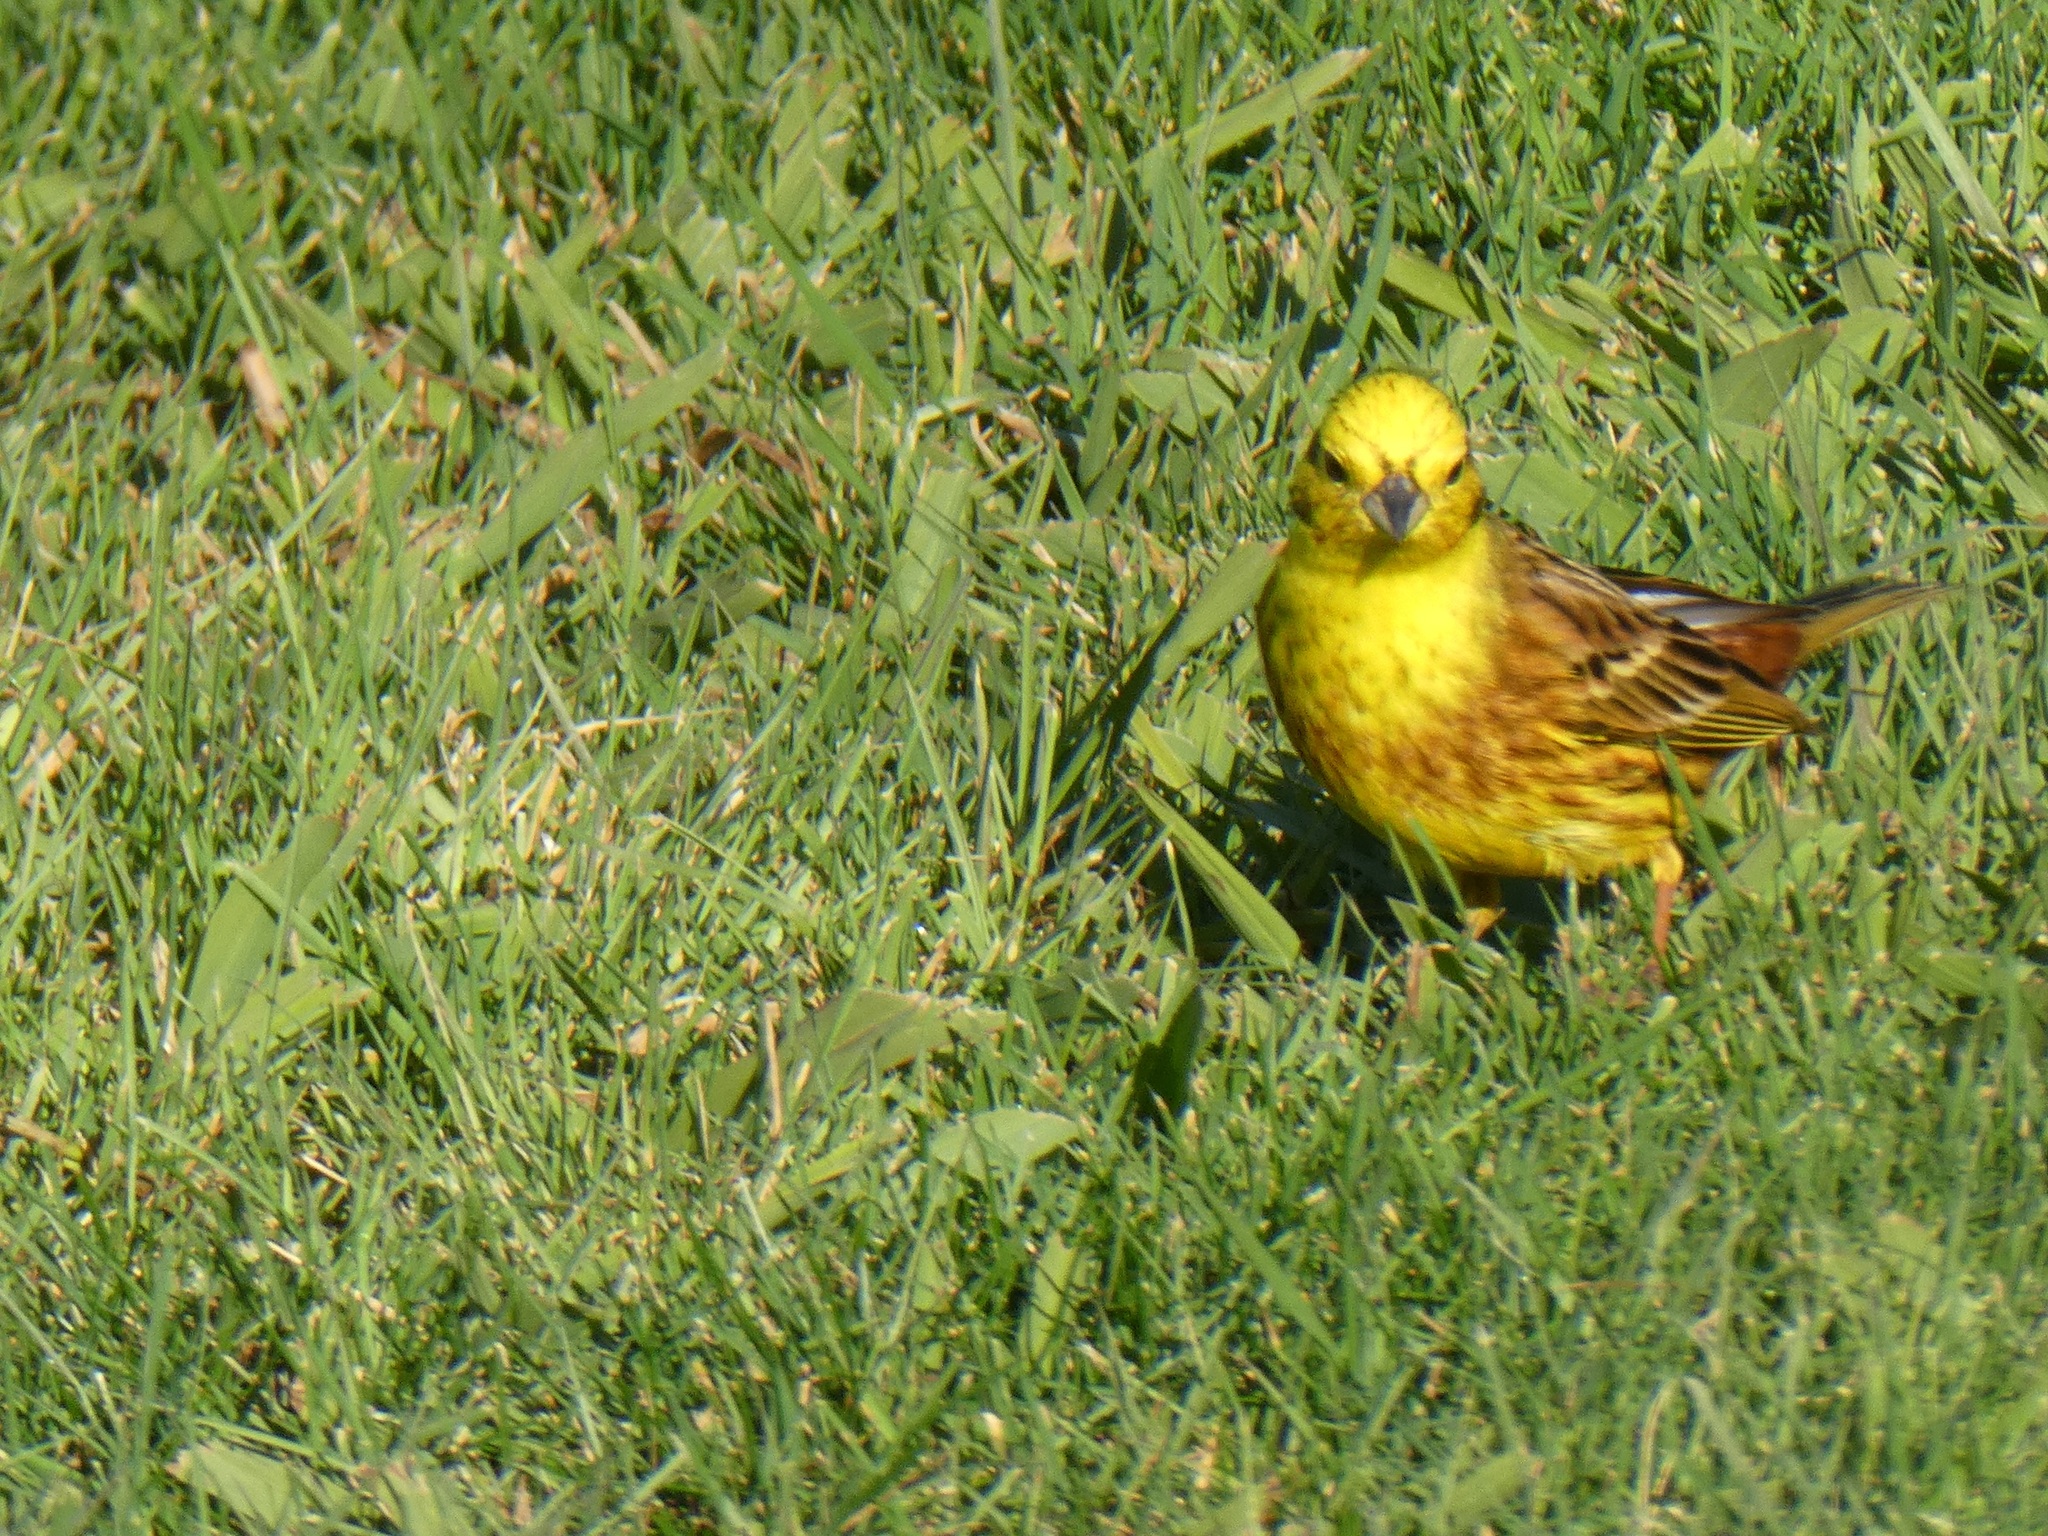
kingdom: Animalia
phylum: Chordata
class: Aves
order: Passeriformes
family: Emberizidae
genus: Emberiza
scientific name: Emberiza citrinella
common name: Yellowhammer
